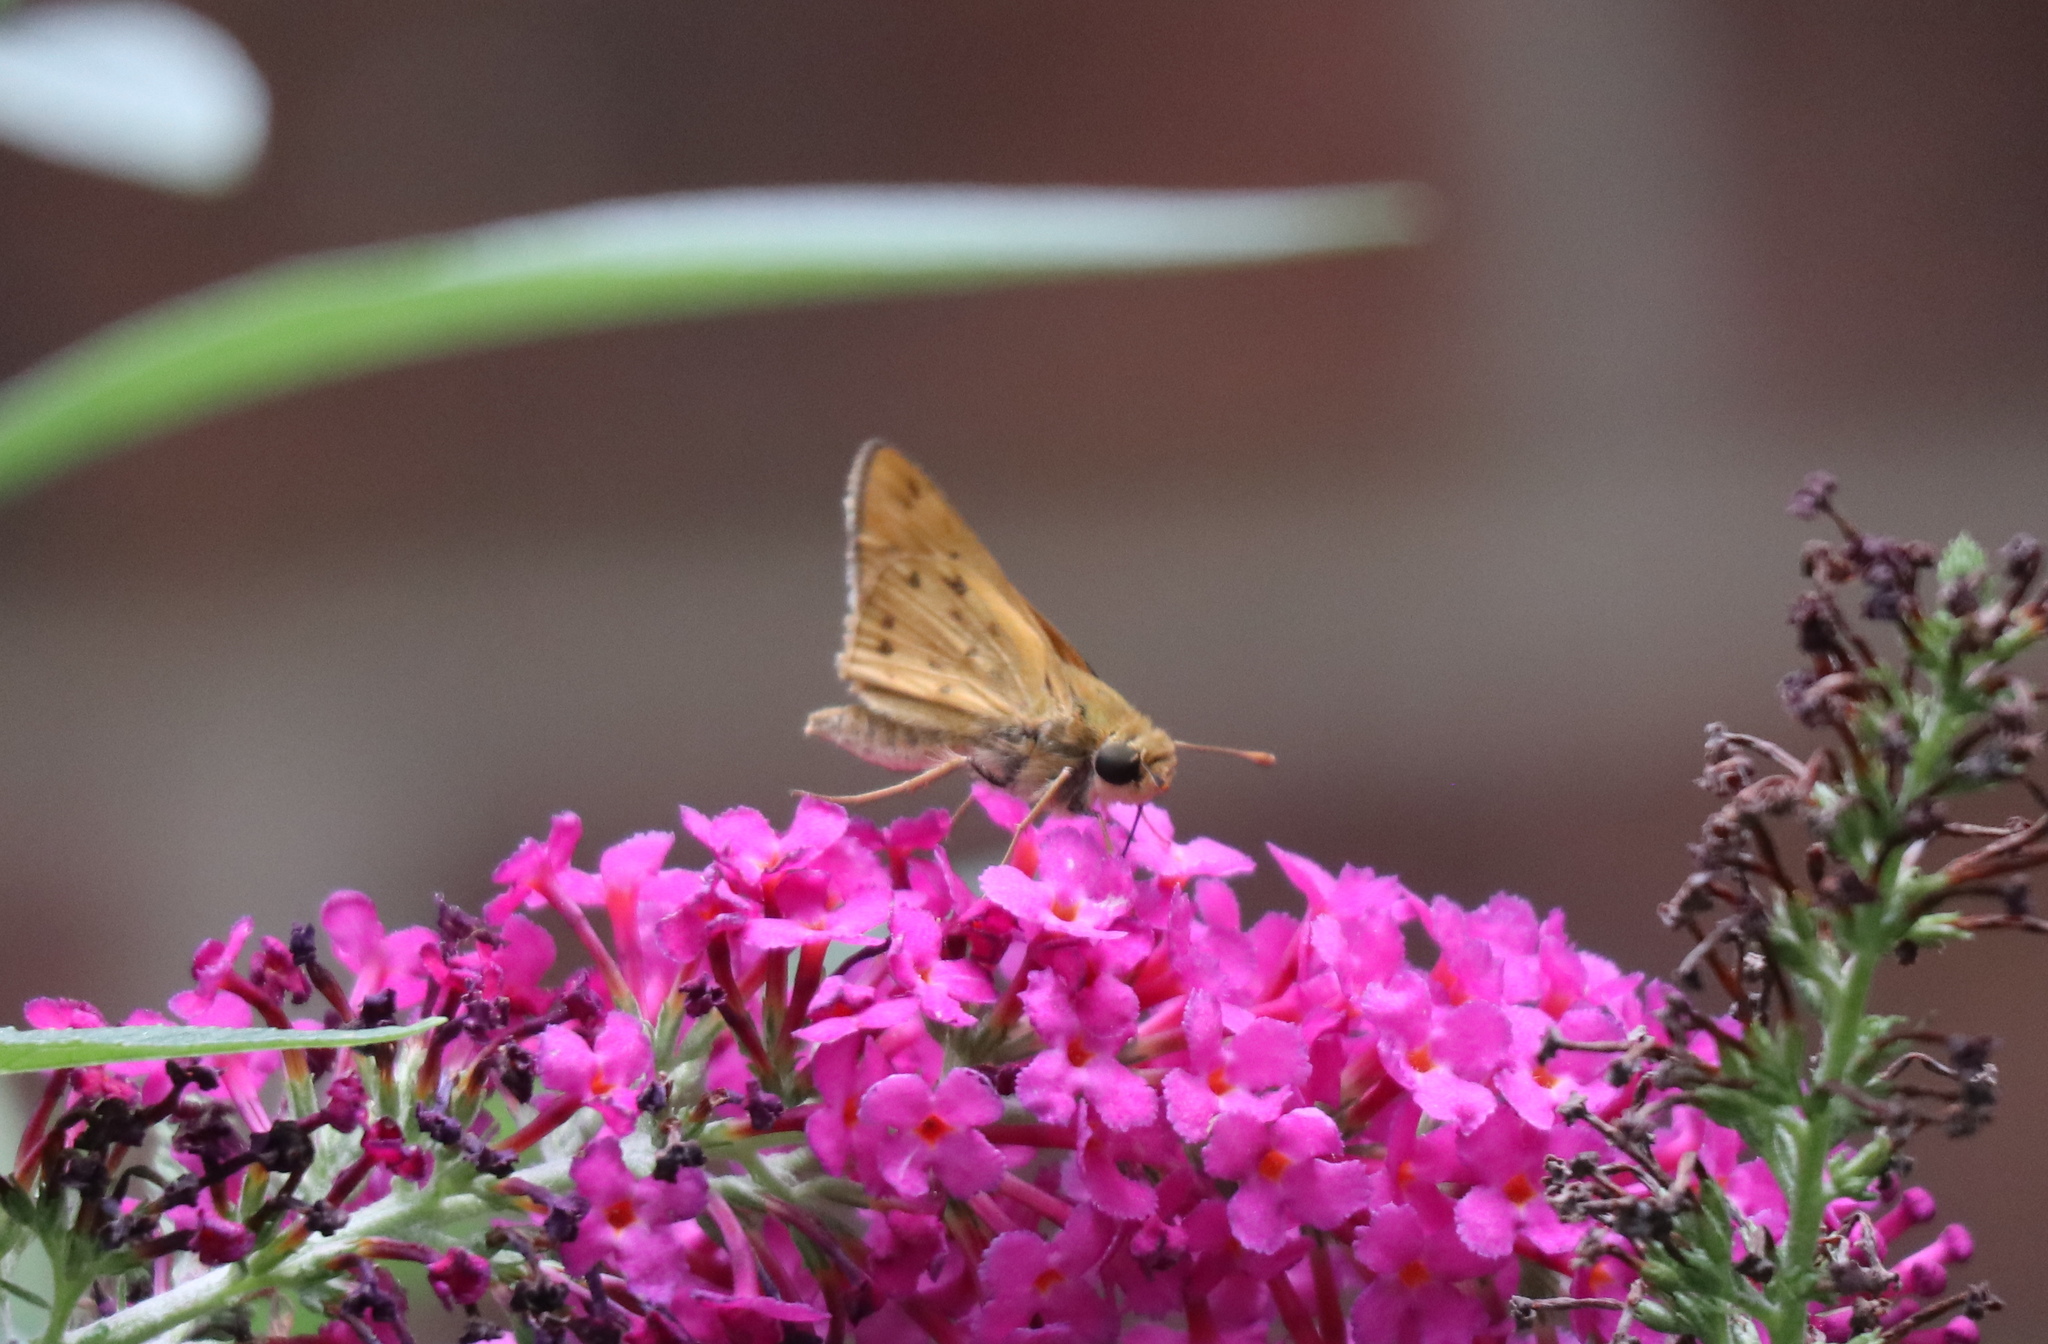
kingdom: Animalia
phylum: Arthropoda
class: Insecta
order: Lepidoptera
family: Hesperiidae
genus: Hylephila
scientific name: Hylephila phyleus
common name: Fiery skipper
